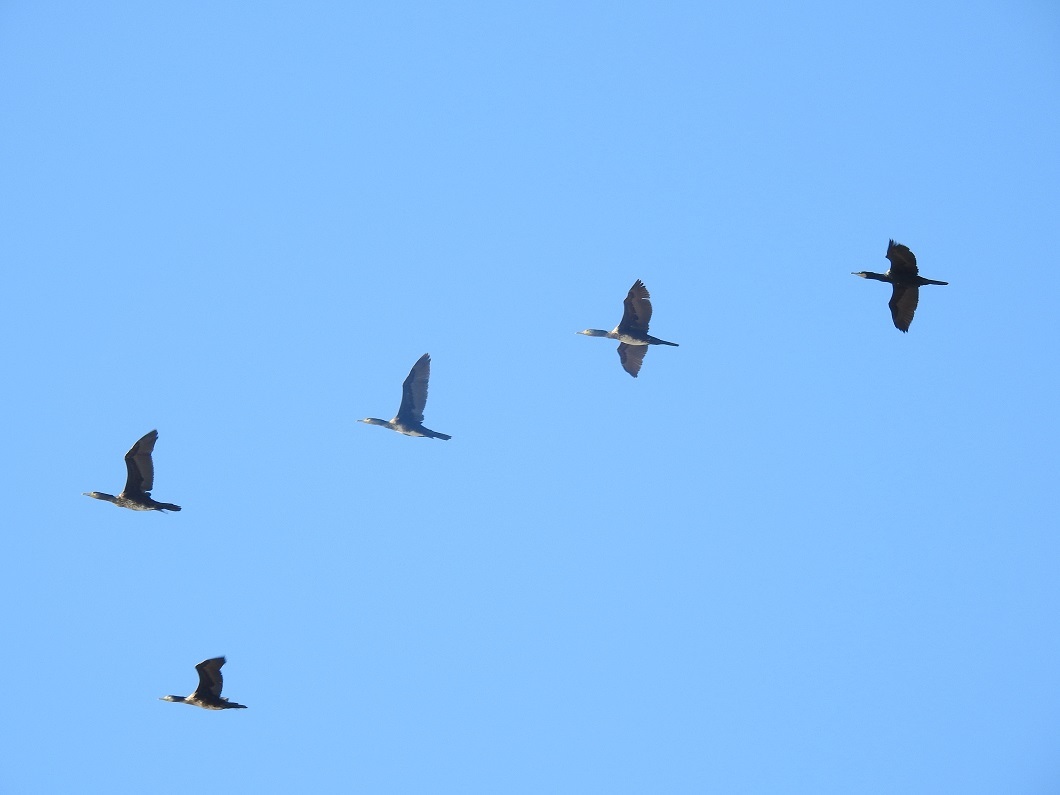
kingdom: Animalia
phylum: Chordata
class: Aves
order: Suliformes
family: Phalacrocoracidae
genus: Phalacrocorax
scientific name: Phalacrocorax carbo
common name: Great cormorant
